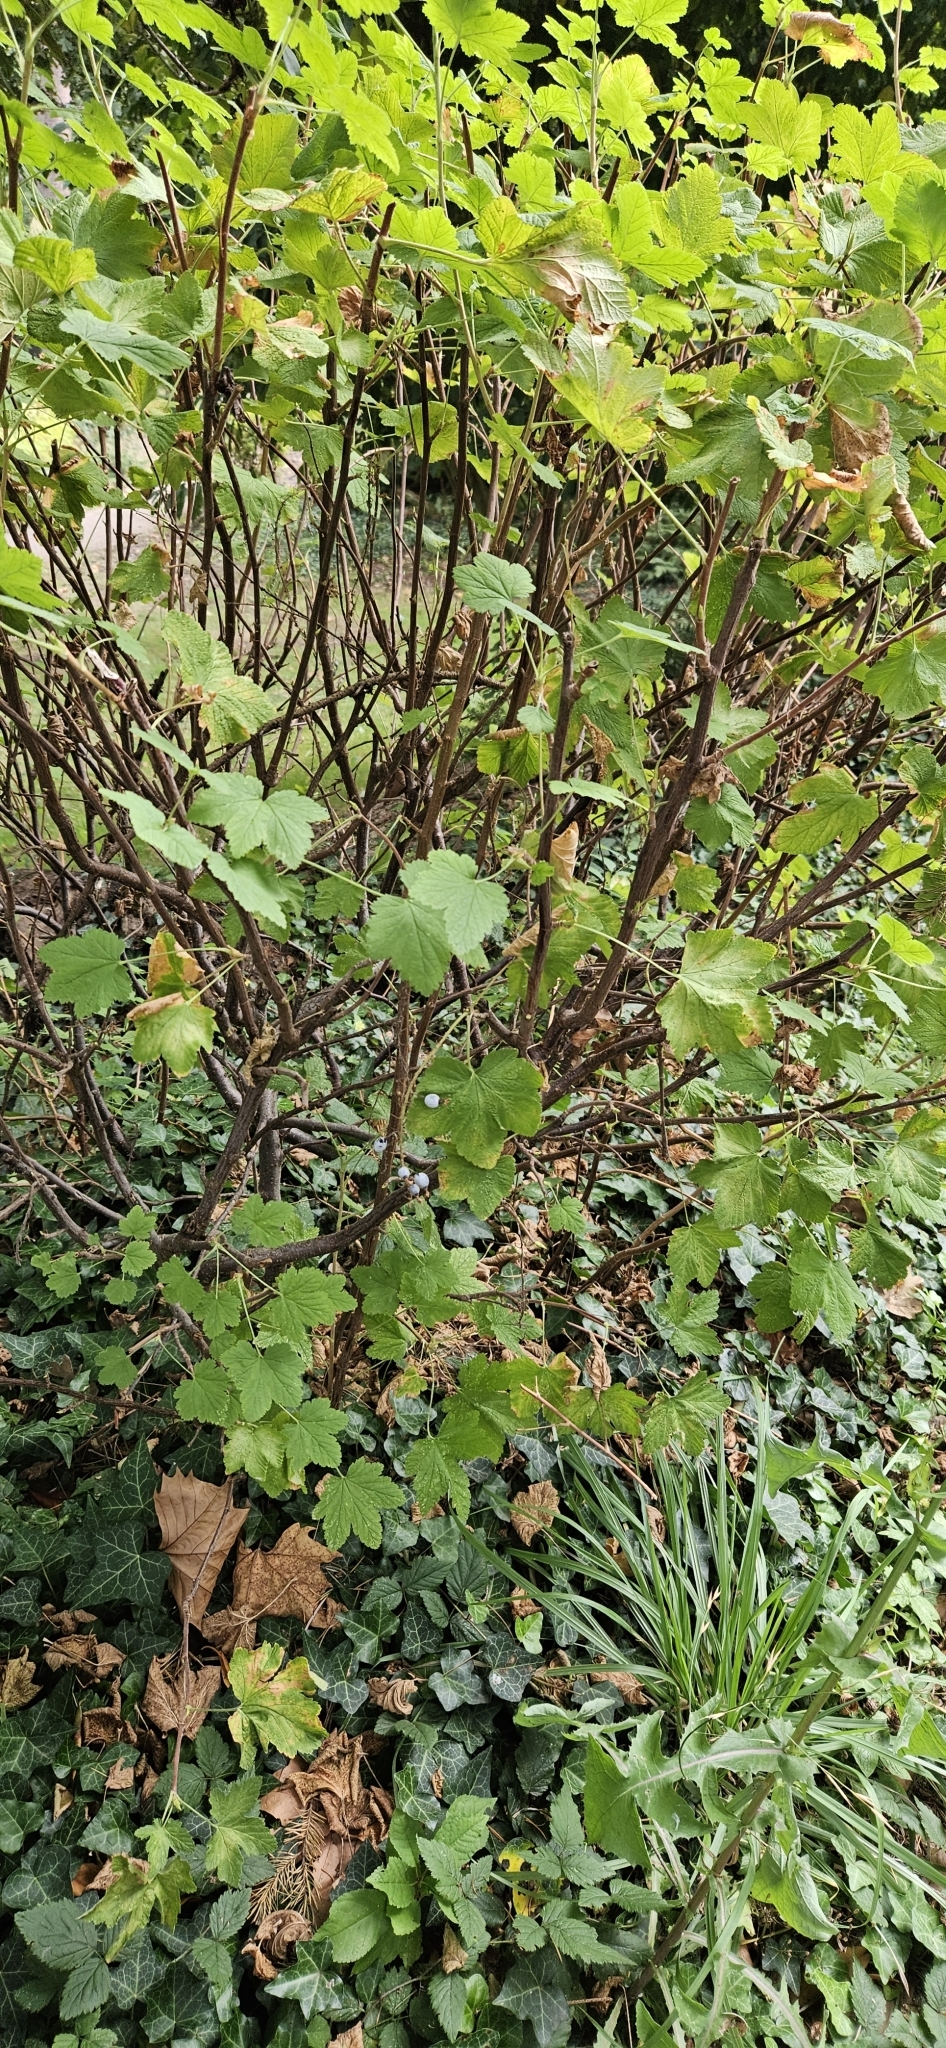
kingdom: Plantae
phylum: Tracheophyta
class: Magnoliopsida
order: Saxifragales
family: Grossulariaceae
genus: Ribes
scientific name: Ribes sanguineum
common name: Flowering currant
